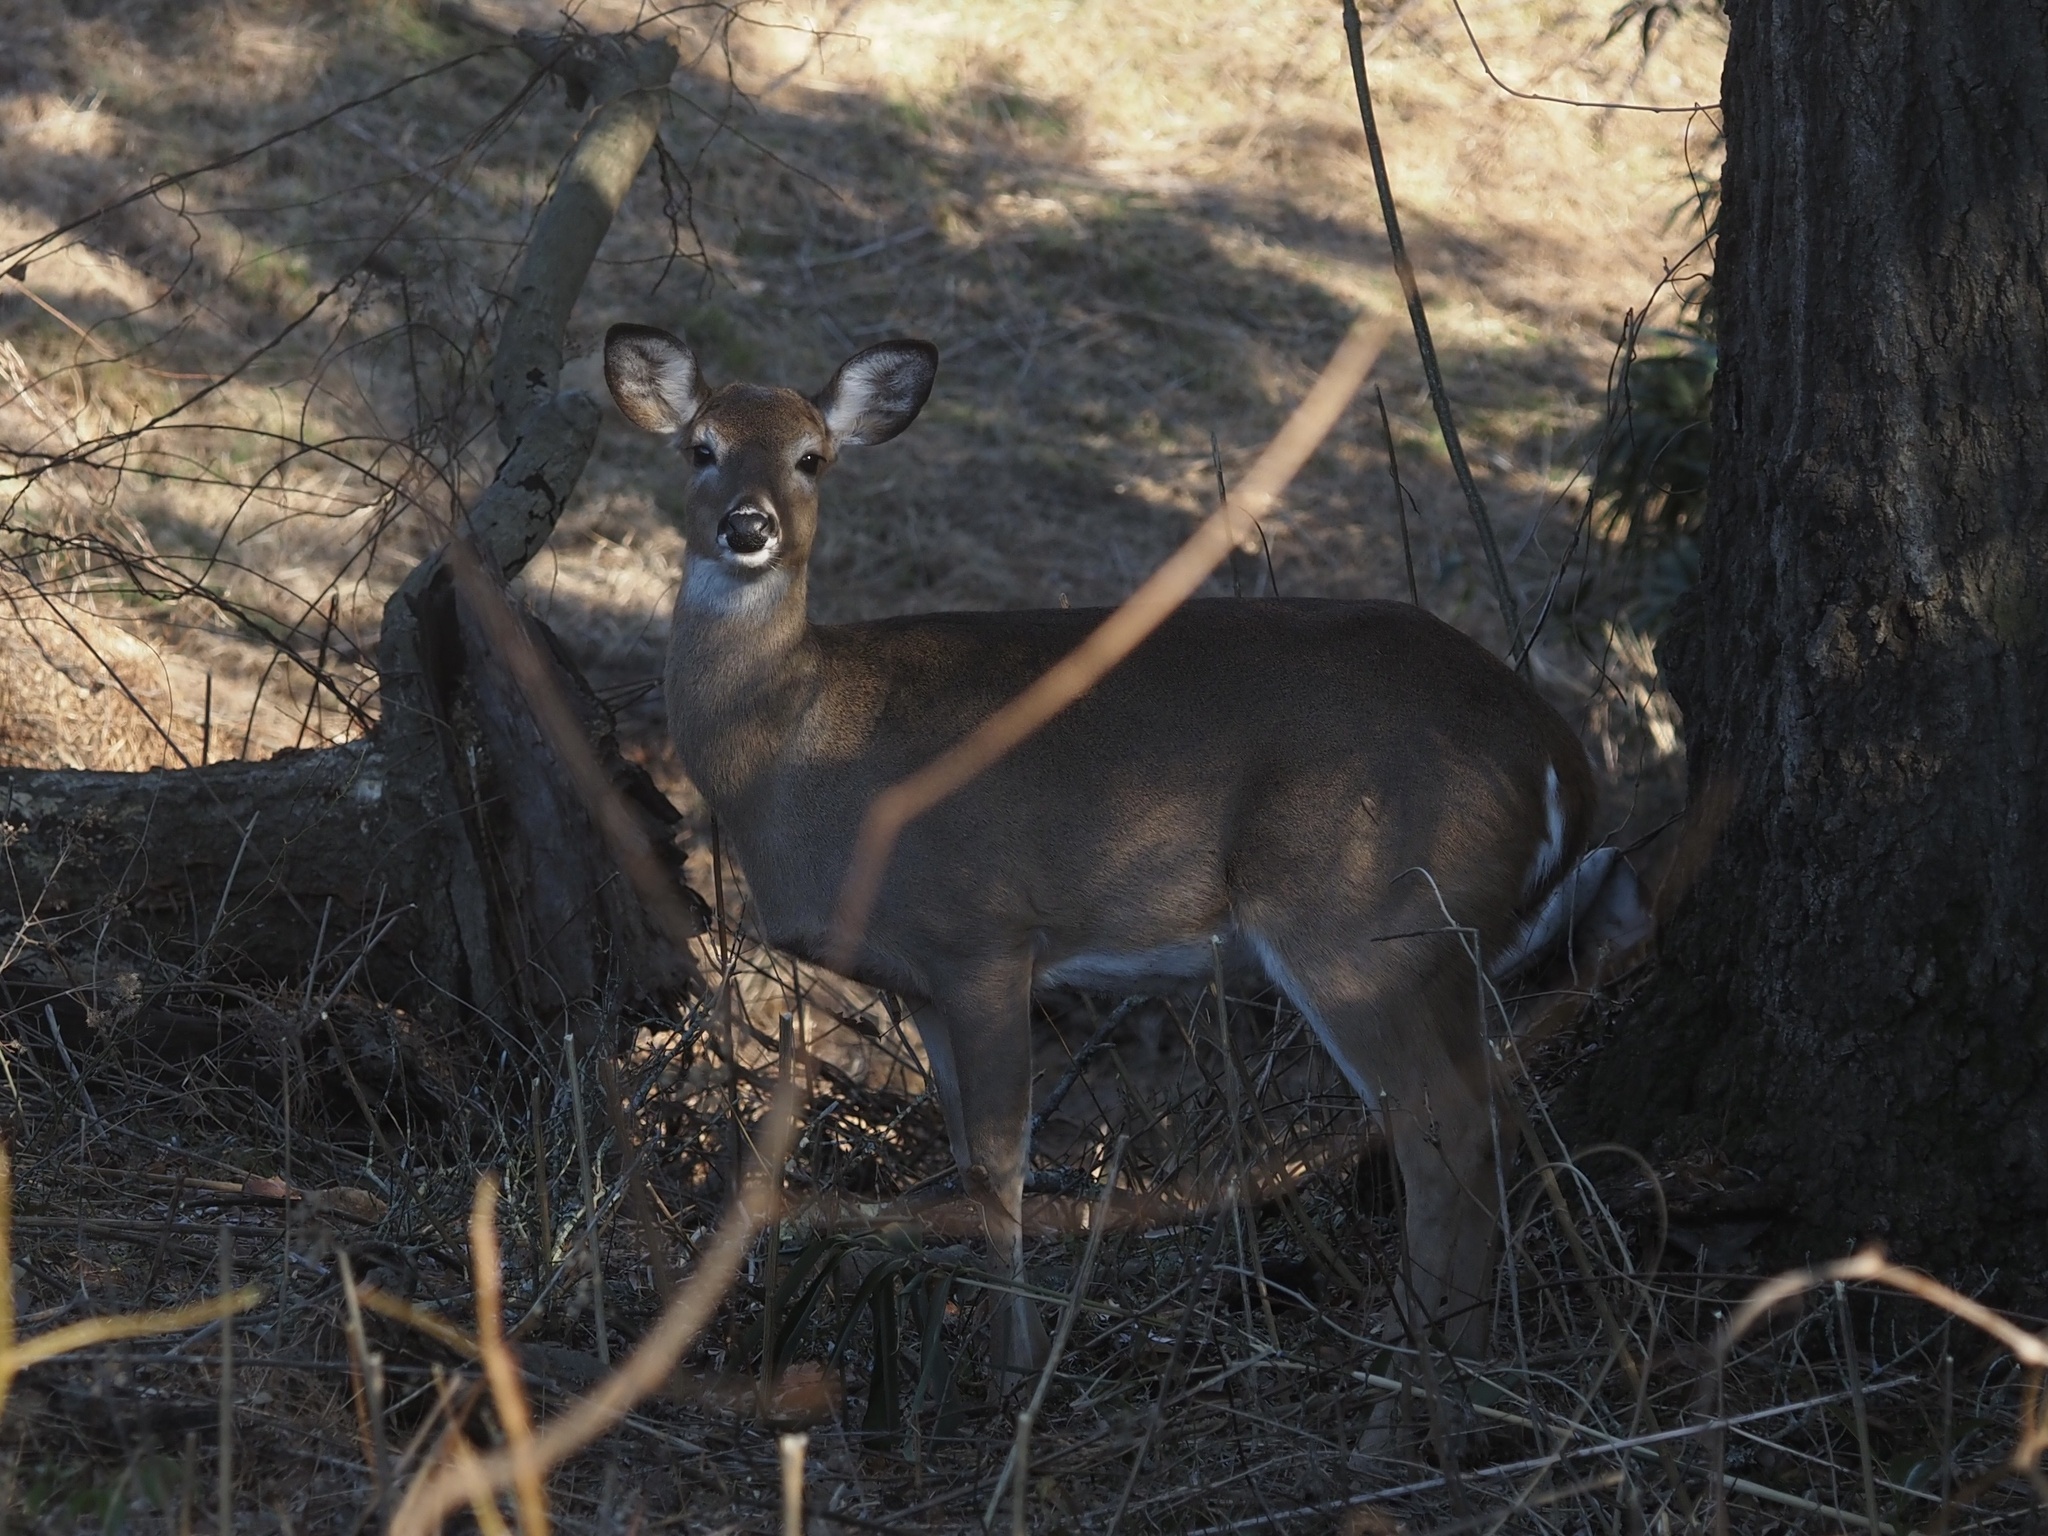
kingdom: Animalia
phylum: Chordata
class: Mammalia
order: Artiodactyla
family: Cervidae
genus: Odocoileus
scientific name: Odocoileus virginianus
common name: White-tailed deer
